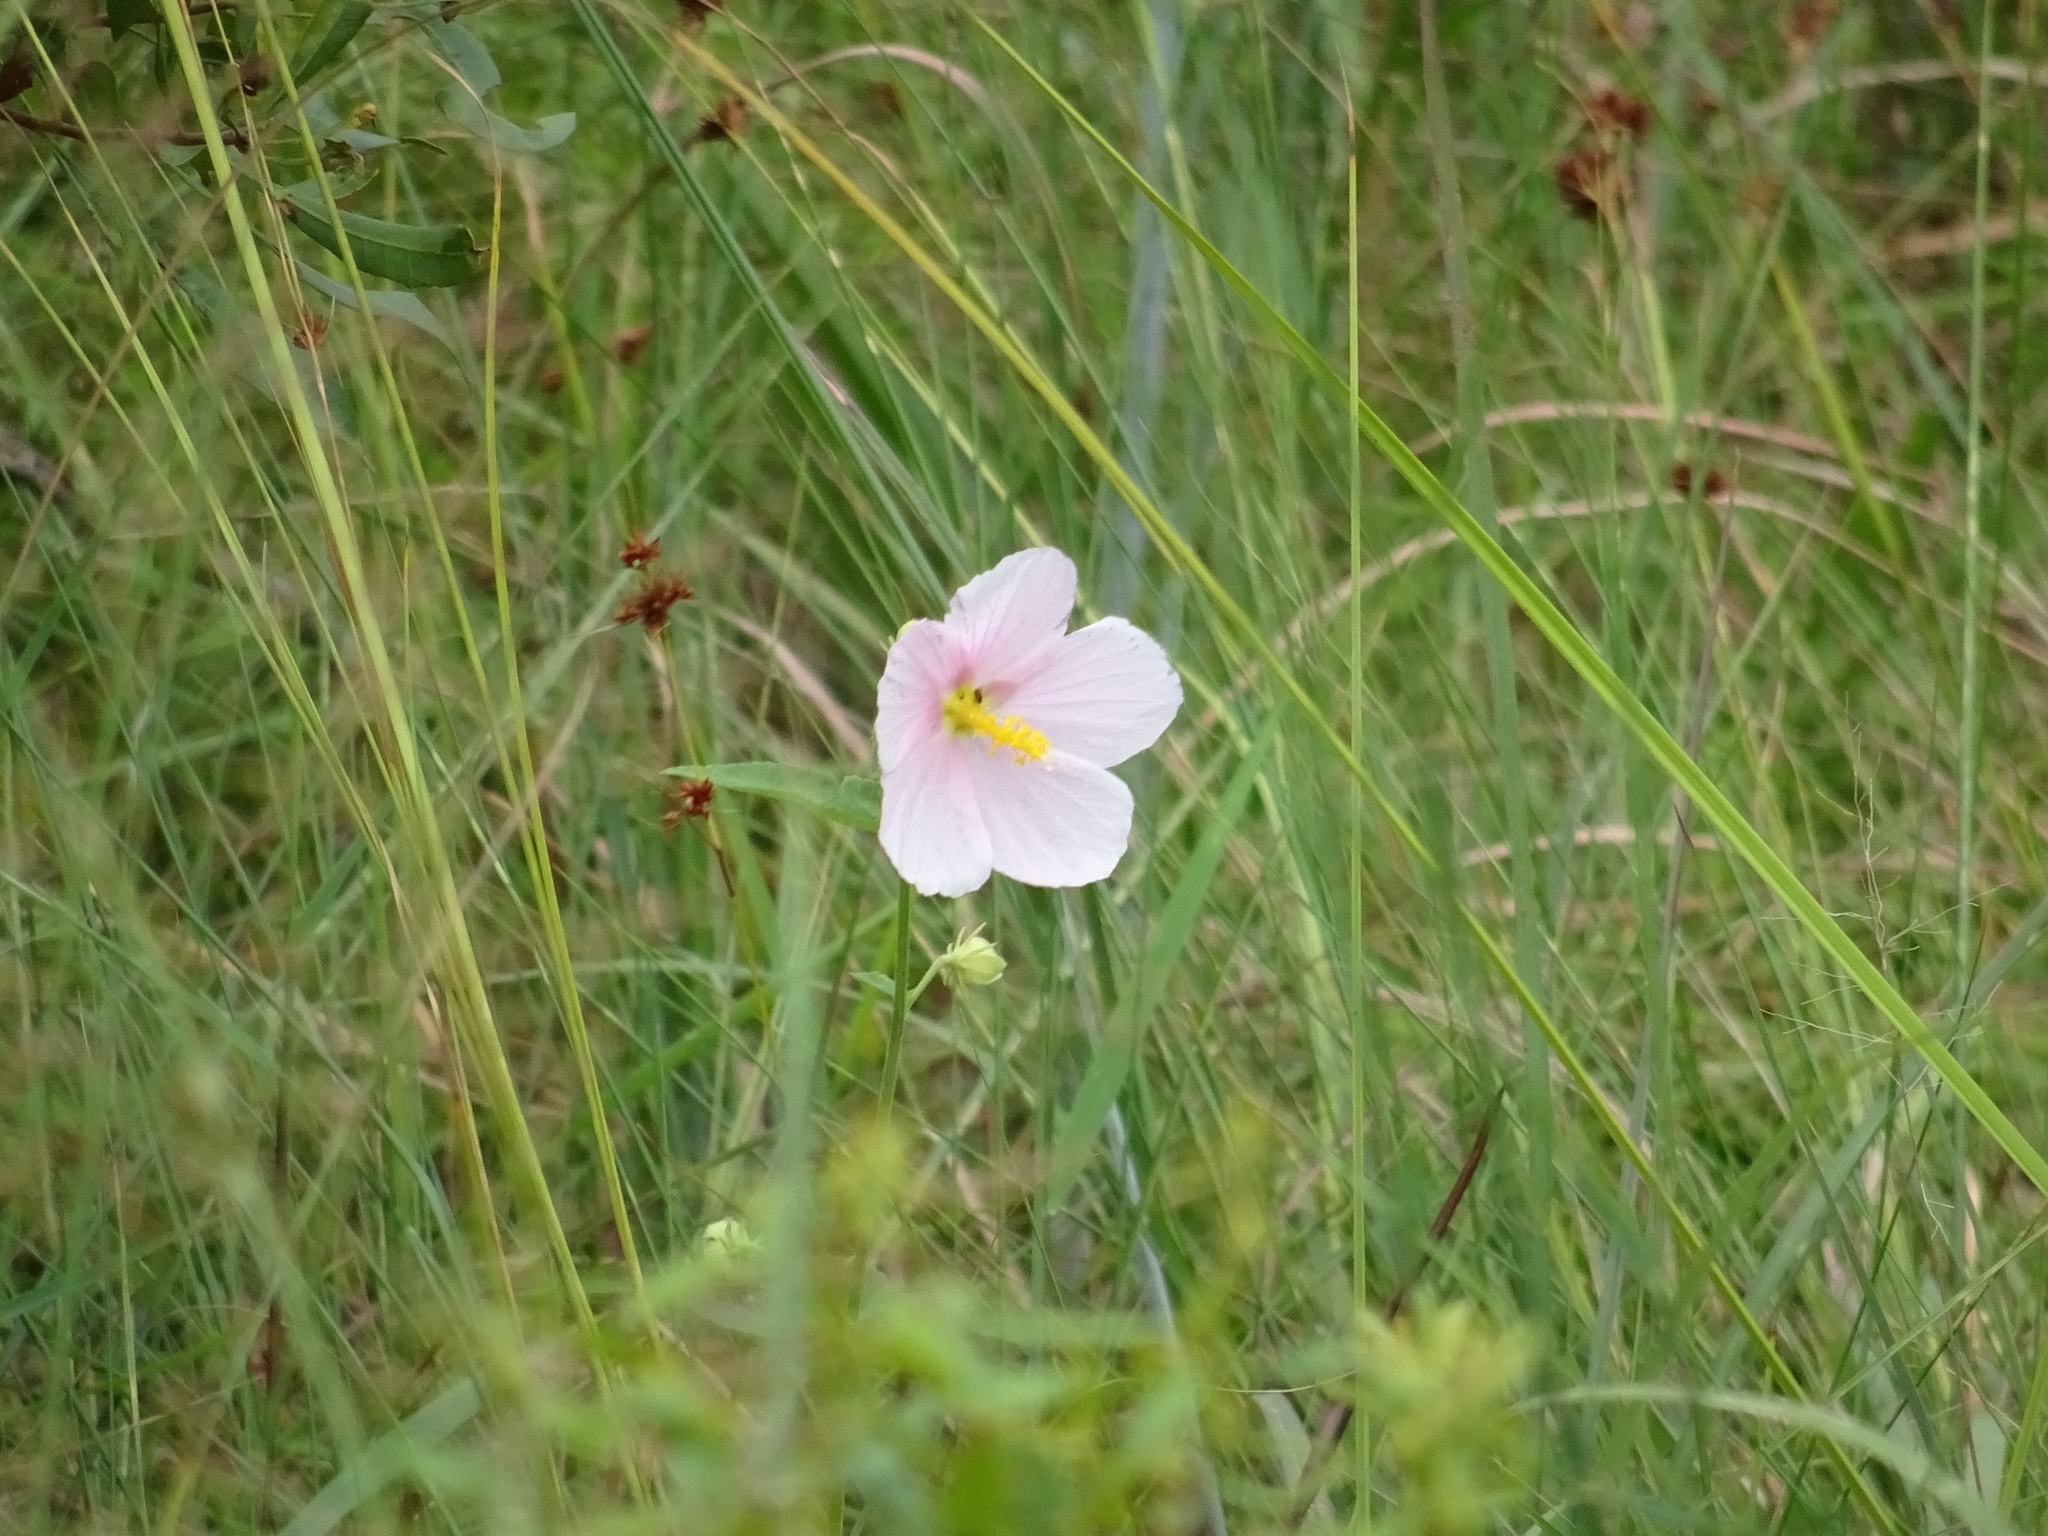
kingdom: Plantae
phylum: Tracheophyta
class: Magnoliopsida
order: Malvales
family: Malvaceae
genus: Kosteletzkya
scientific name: Kosteletzkya pentacarpos
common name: Virginia saltmarsh mallow
